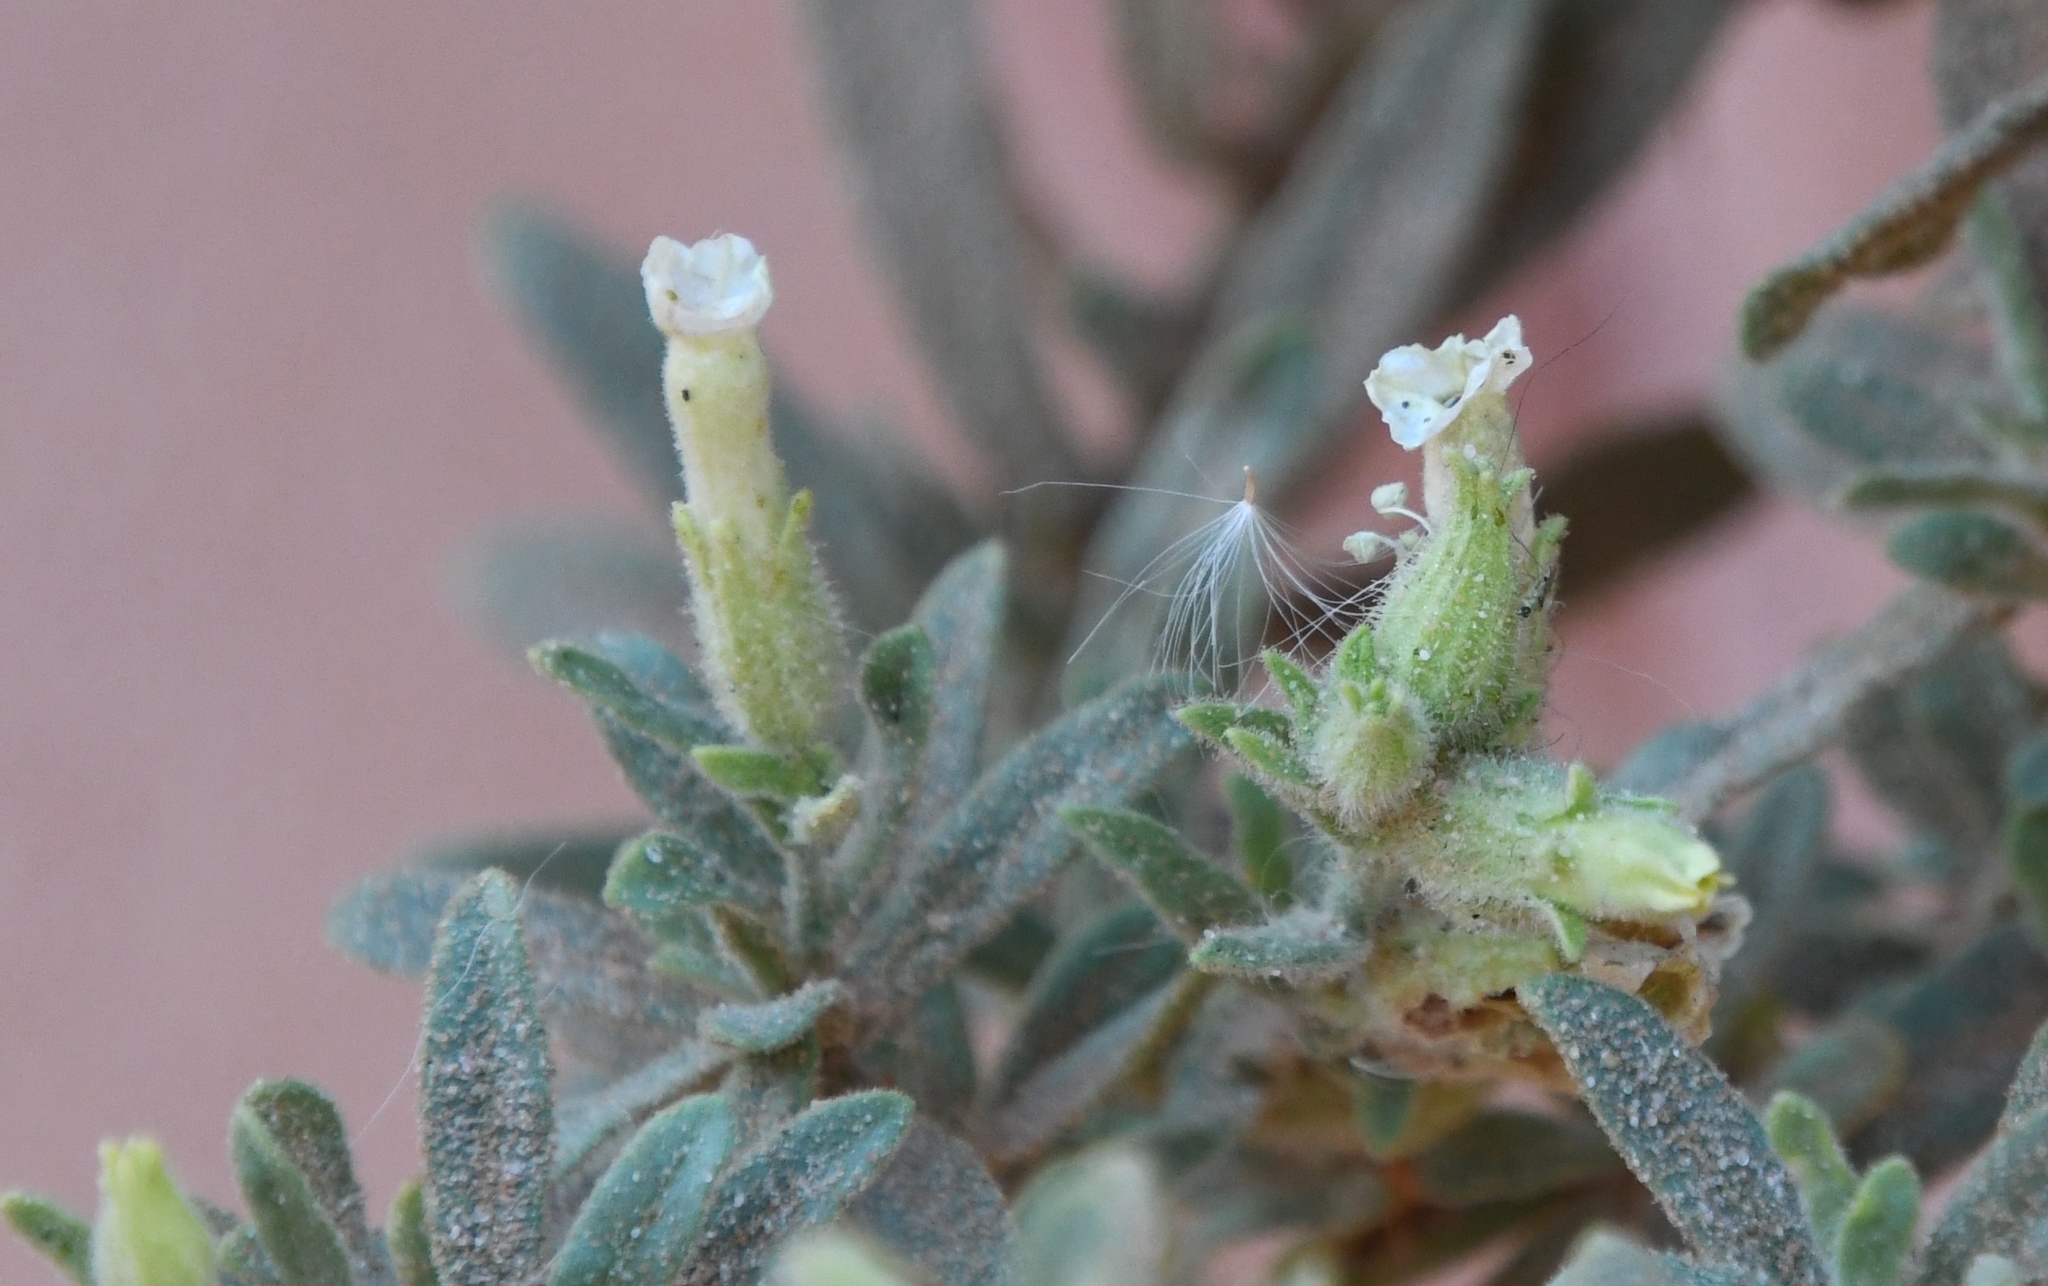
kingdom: Plantae
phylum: Tracheophyta
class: Magnoliopsida
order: Solanales
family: Solanaceae
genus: Nicotiana
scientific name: Nicotiana obtusifolia
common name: Desert tobacco
